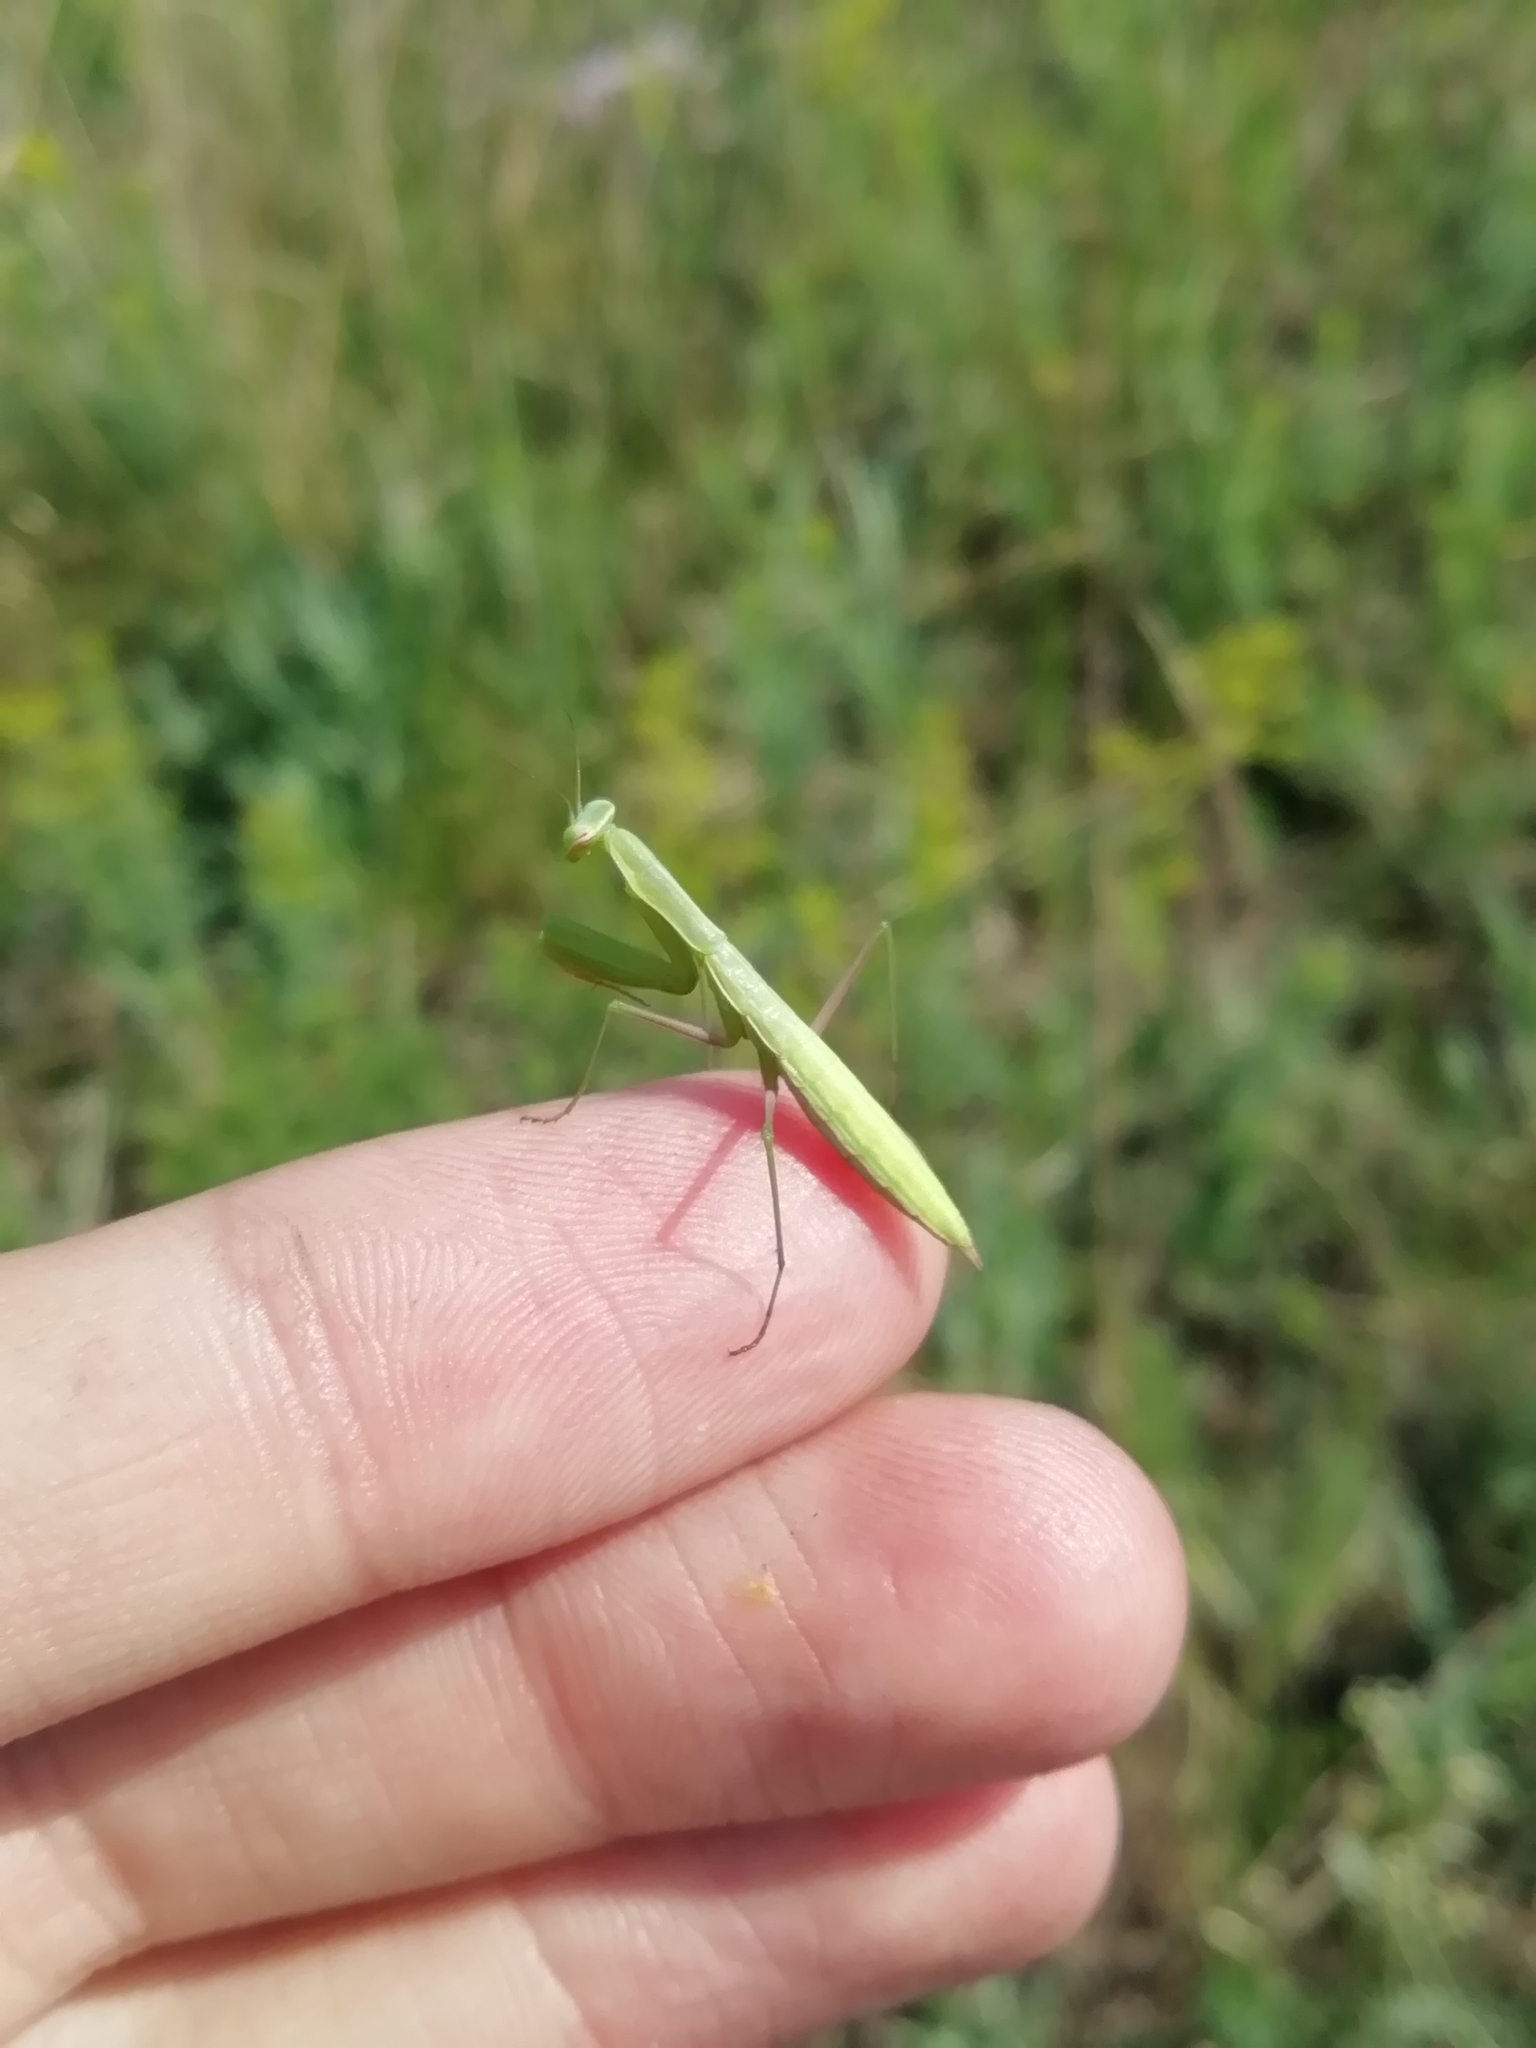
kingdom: Animalia
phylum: Arthropoda
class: Insecta
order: Mantodea
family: Mantidae
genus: Mantis
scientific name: Mantis religiosa
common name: Praying mantis
